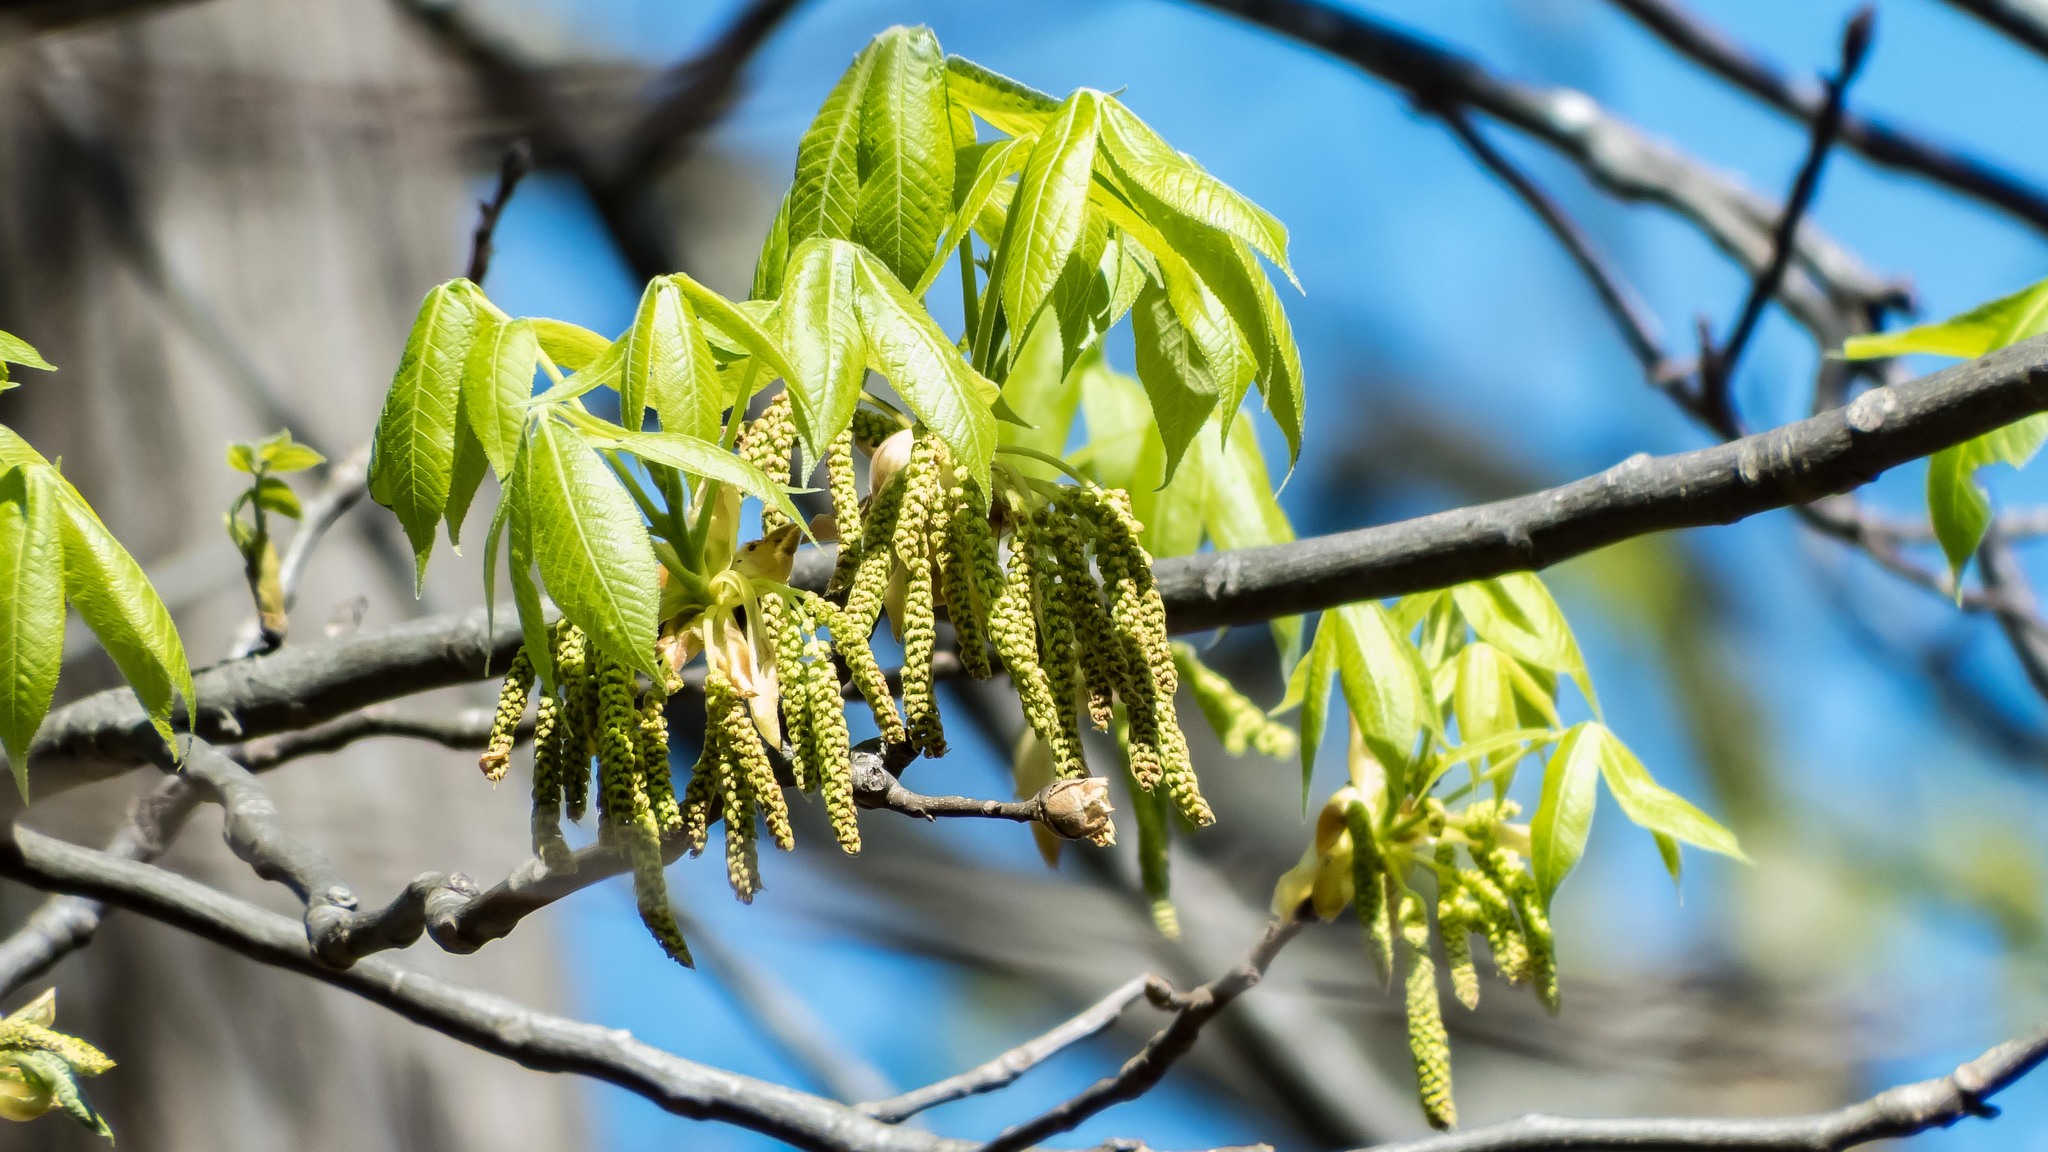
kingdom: Plantae
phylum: Tracheophyta
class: Magnoliopsida
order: Fagales
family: Juglandaceae
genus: Carya
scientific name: Carya ovata
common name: Shagbark hickory
